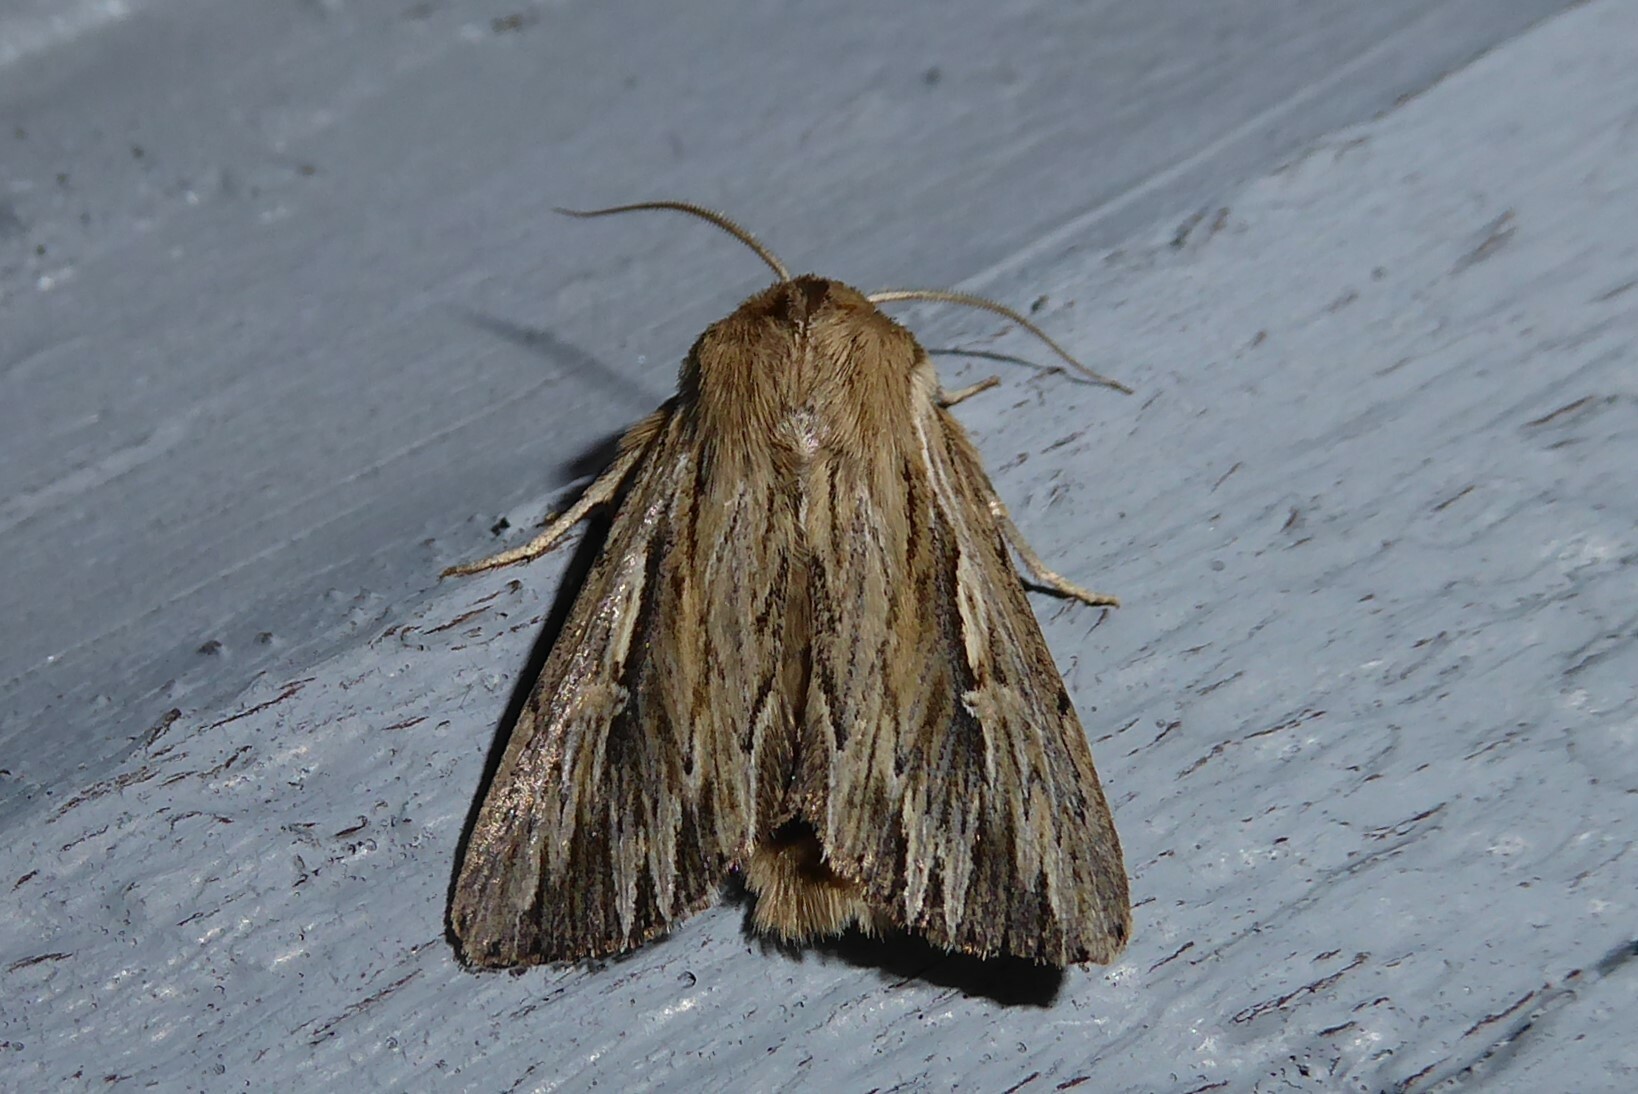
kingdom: Animalia
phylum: Arthropoda
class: Insecta
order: Lepidoptera
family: Noctuidae
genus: Persectania
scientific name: Persectania aversa
